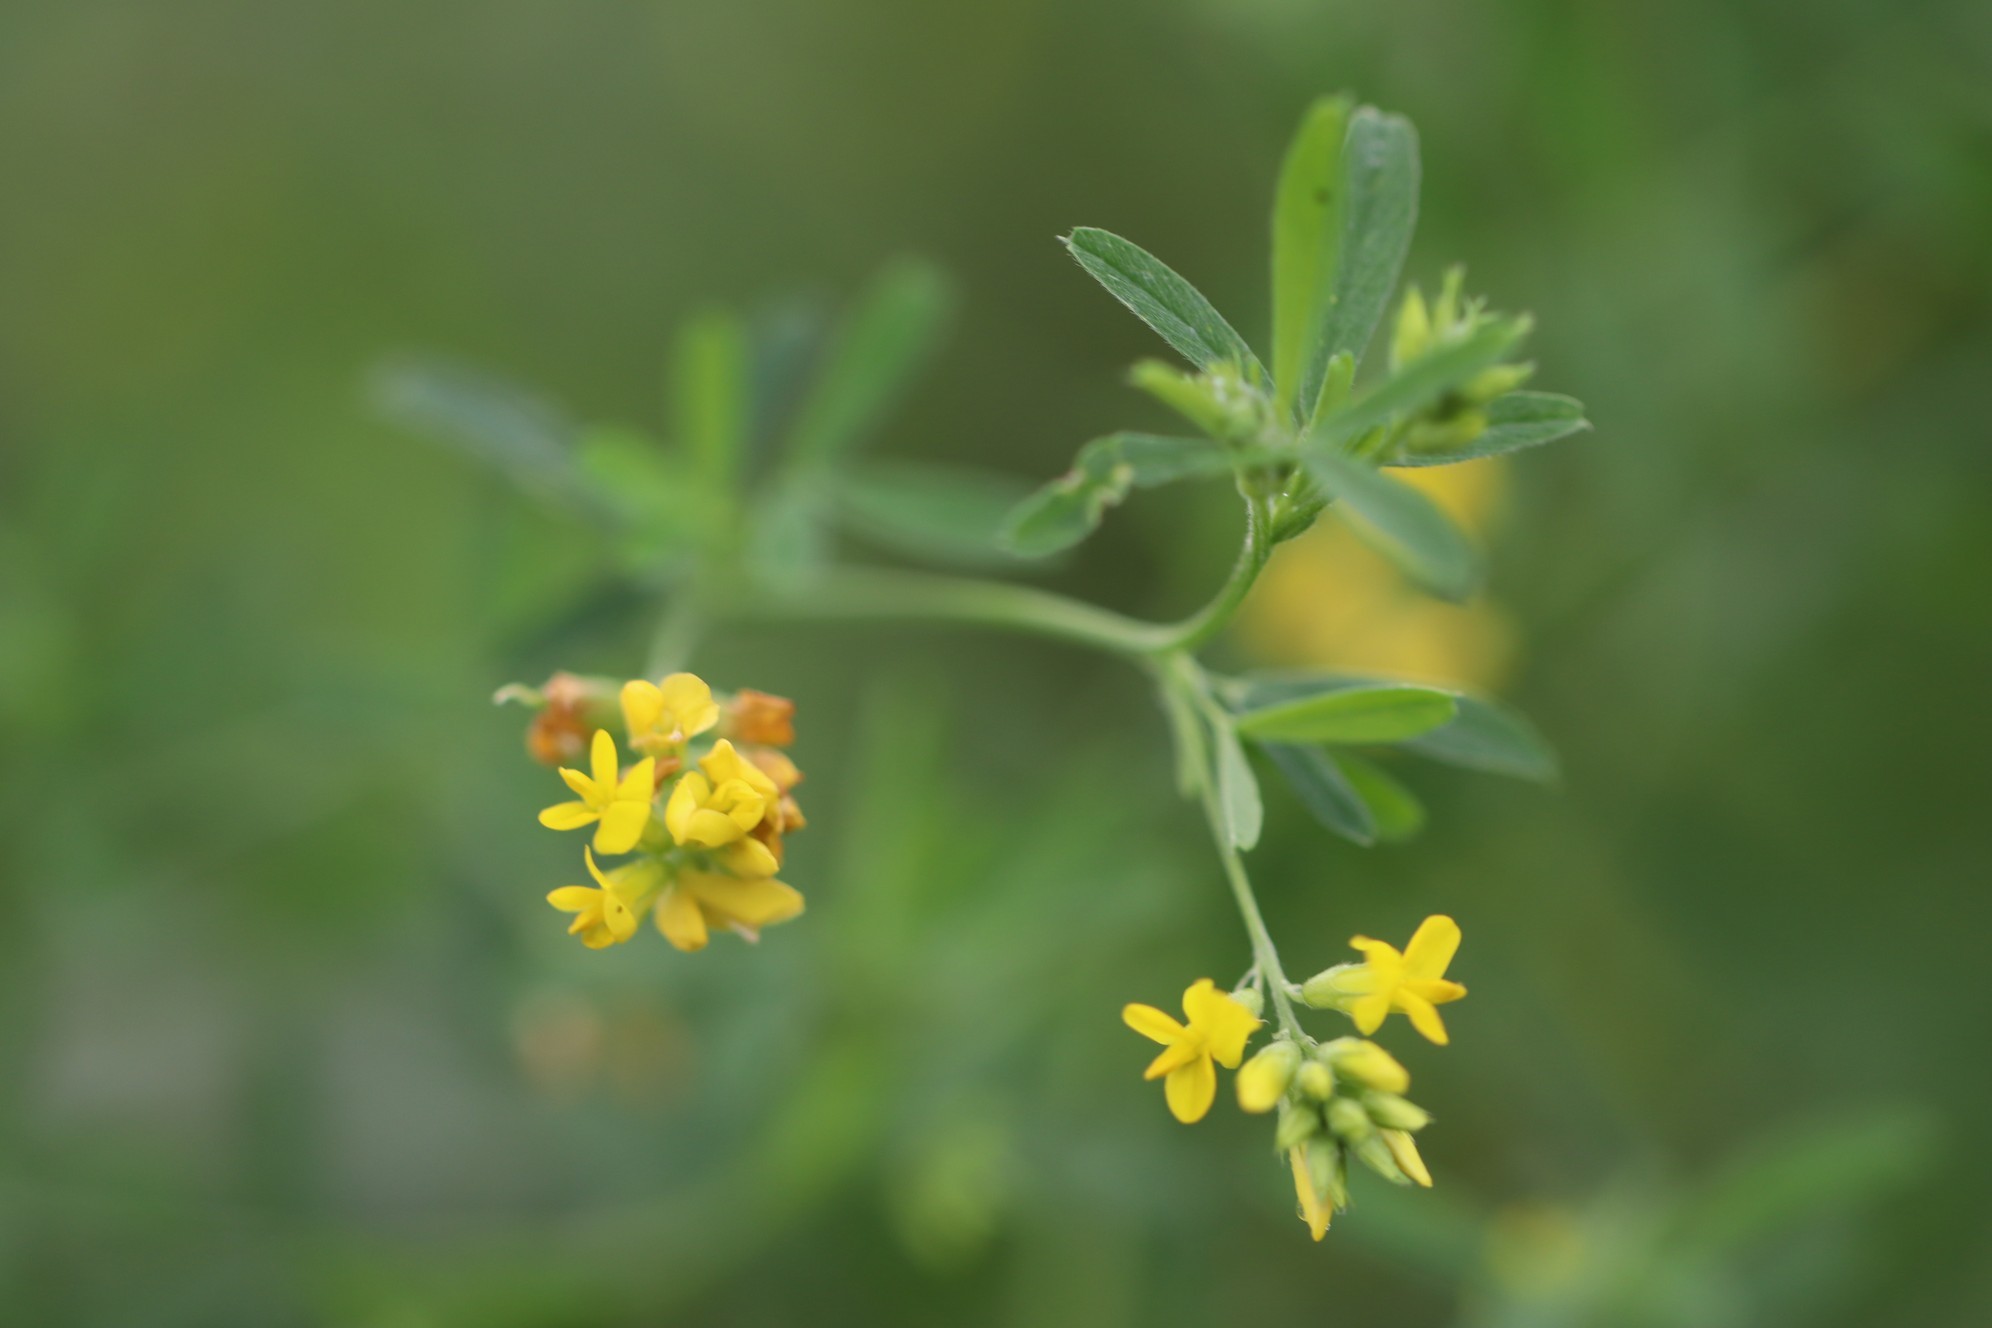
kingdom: Plantae
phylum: Tracheophyta
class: Magnoliopsida
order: Fabales
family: Fabaceae
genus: Medicago
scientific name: Medicago falcata
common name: Sickle medick
